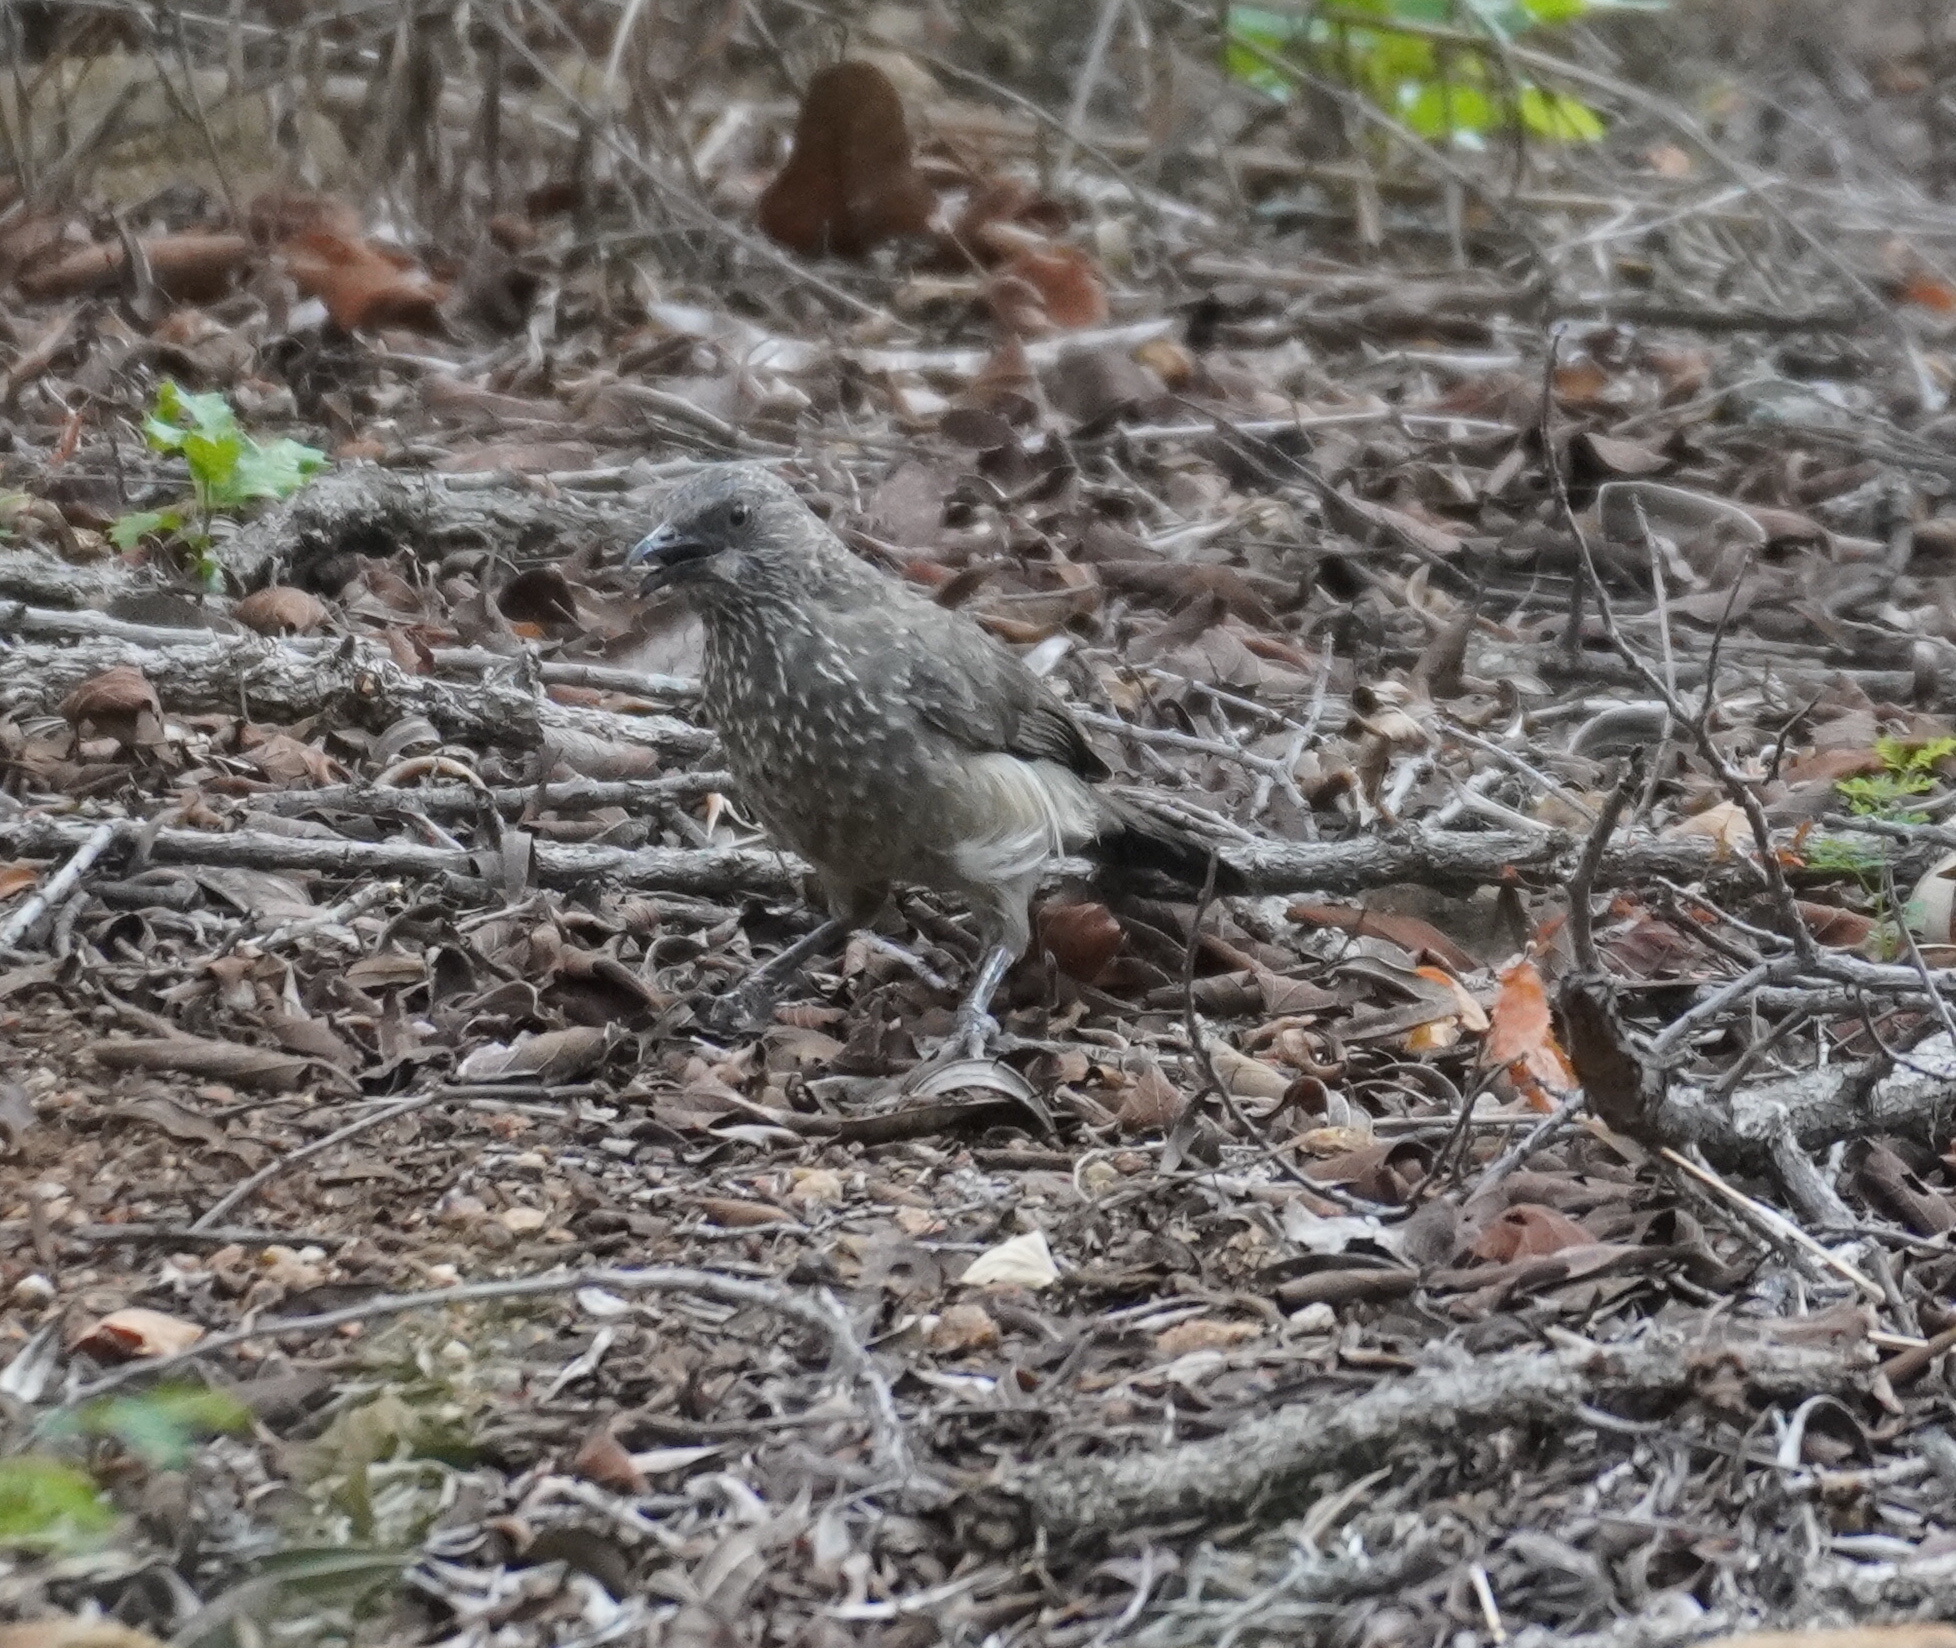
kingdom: Animalia
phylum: Chordata
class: Aves
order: Passeriformes
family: Leiothrichidae
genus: Turdoides
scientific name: Turdoides jardineii
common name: Arrow-marked babbler
